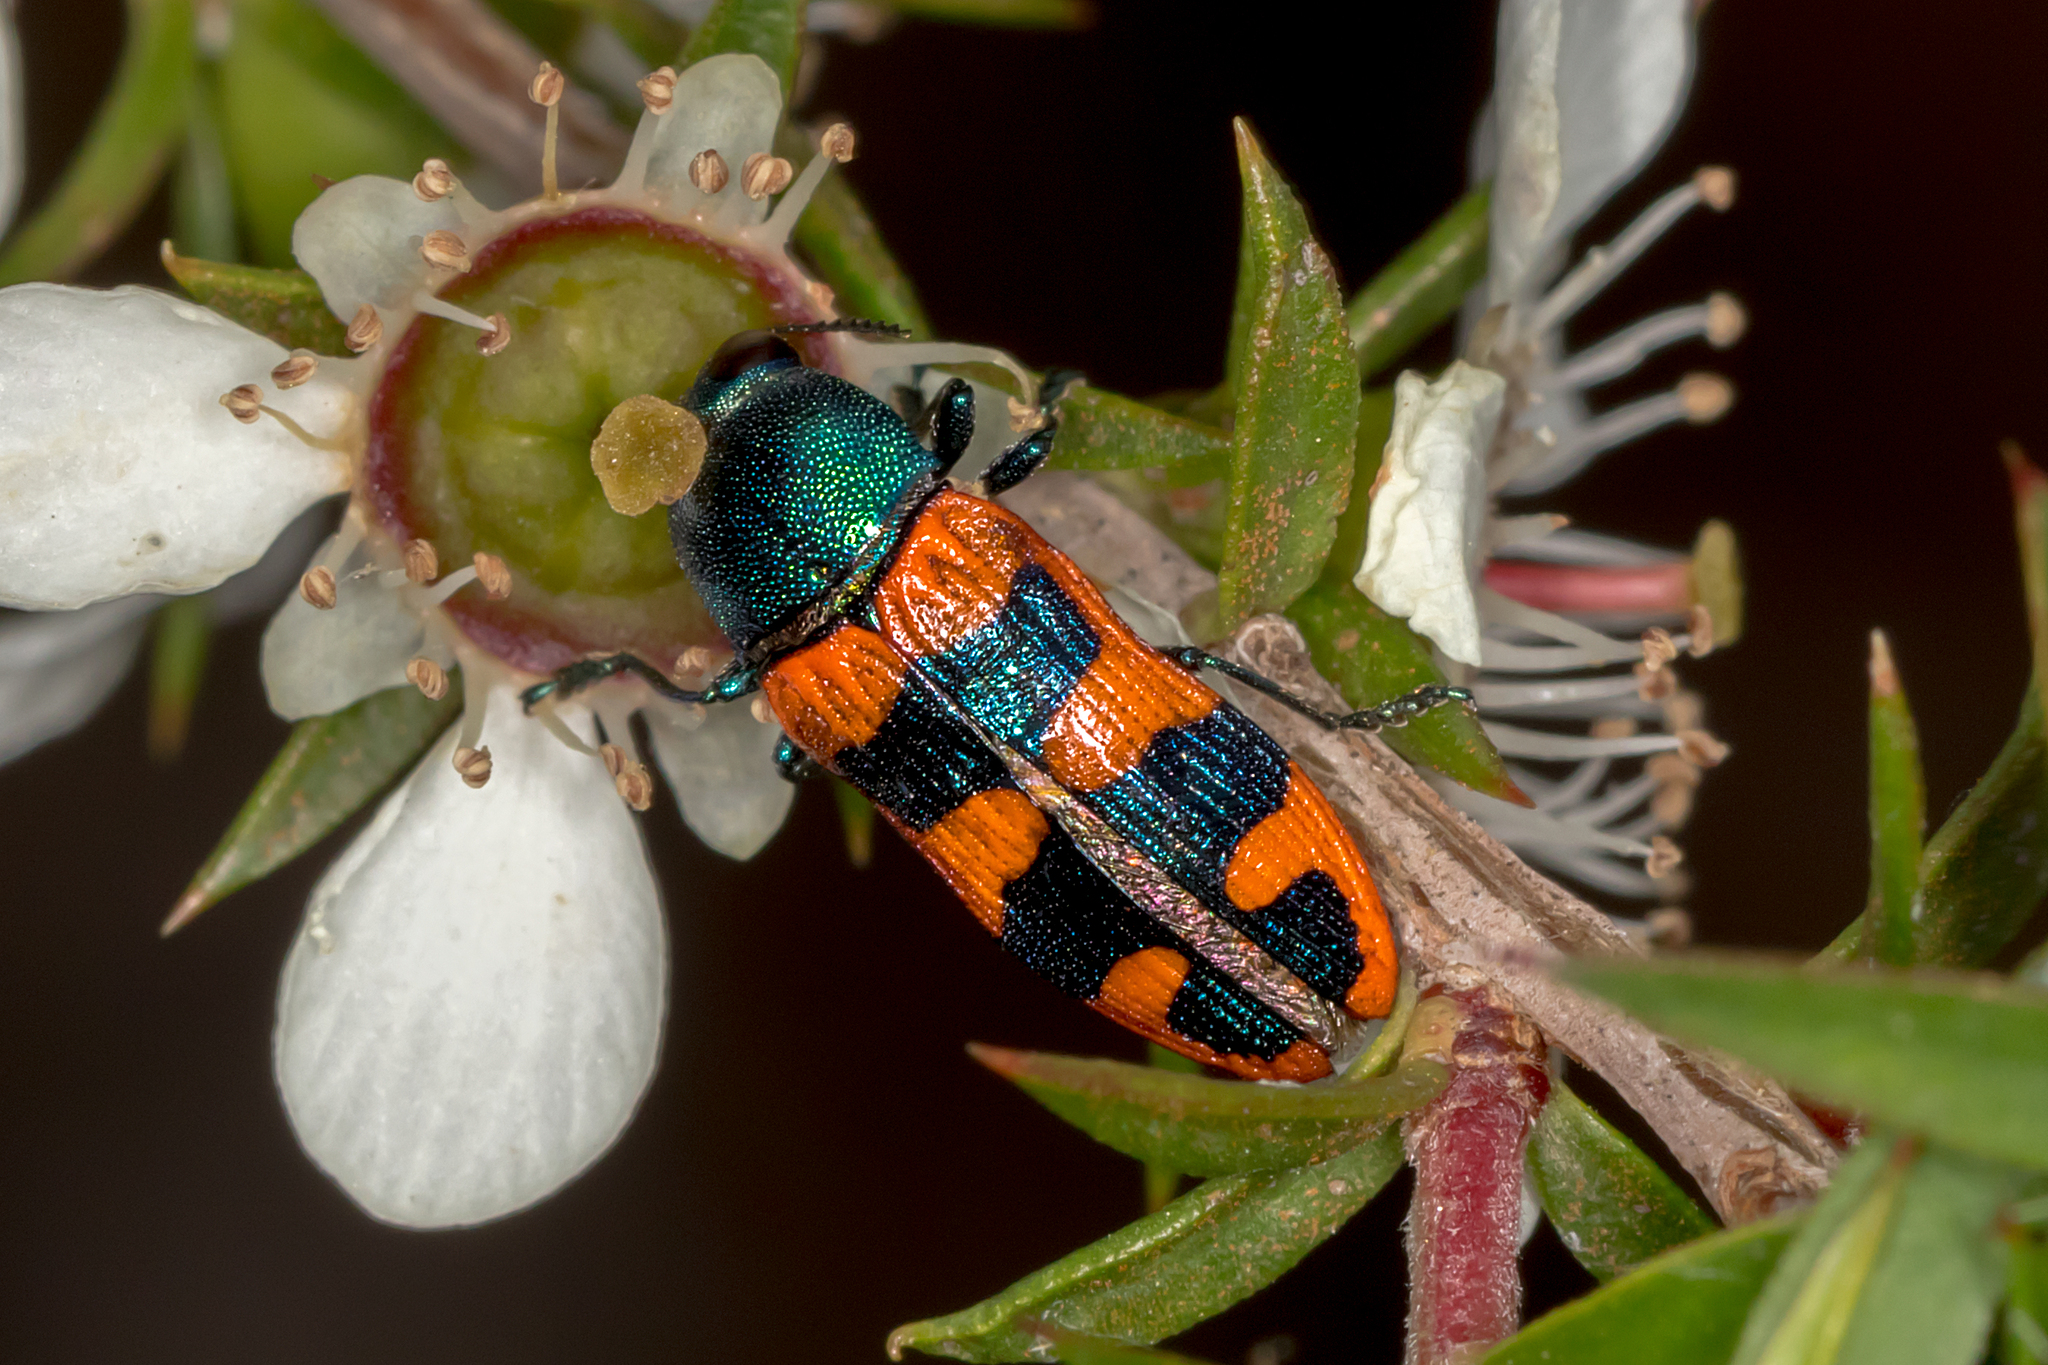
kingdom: Animalia
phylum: Arthropoda
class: Insecta
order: Coleoptera
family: Buprestidae
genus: Castiarina
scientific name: Castiarina crenata
